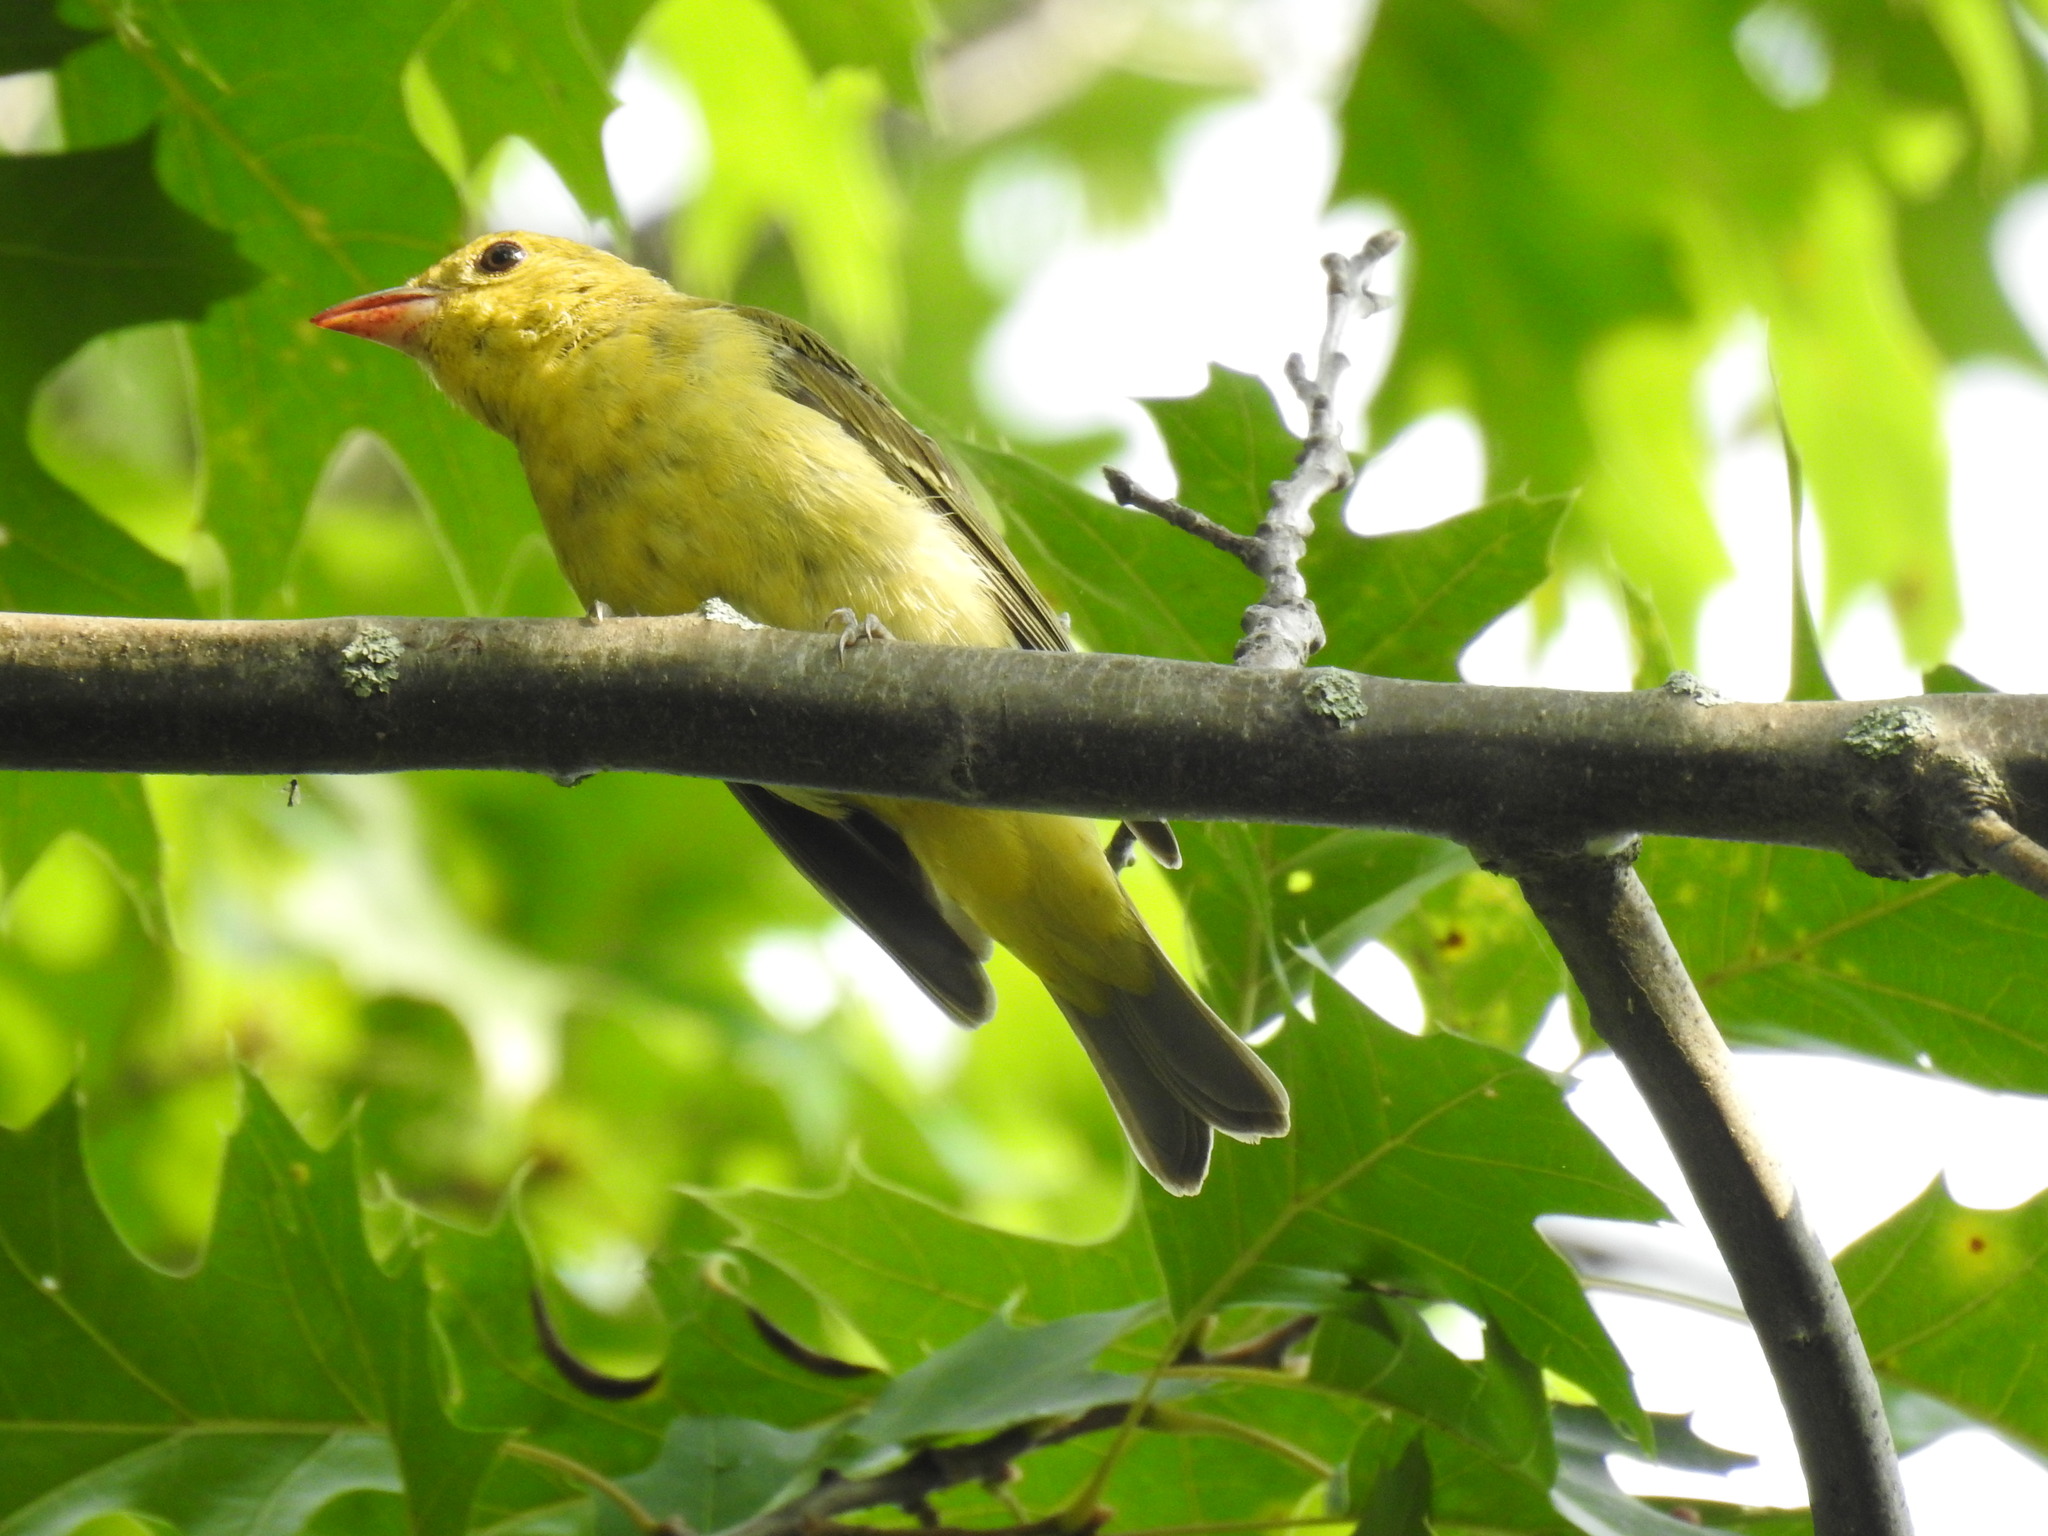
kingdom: Animalia
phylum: Chordata
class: Aves
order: Passeriformes
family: Cardinalidae
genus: Piranga
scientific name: Piranga olivacea
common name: Scarlet tanager
